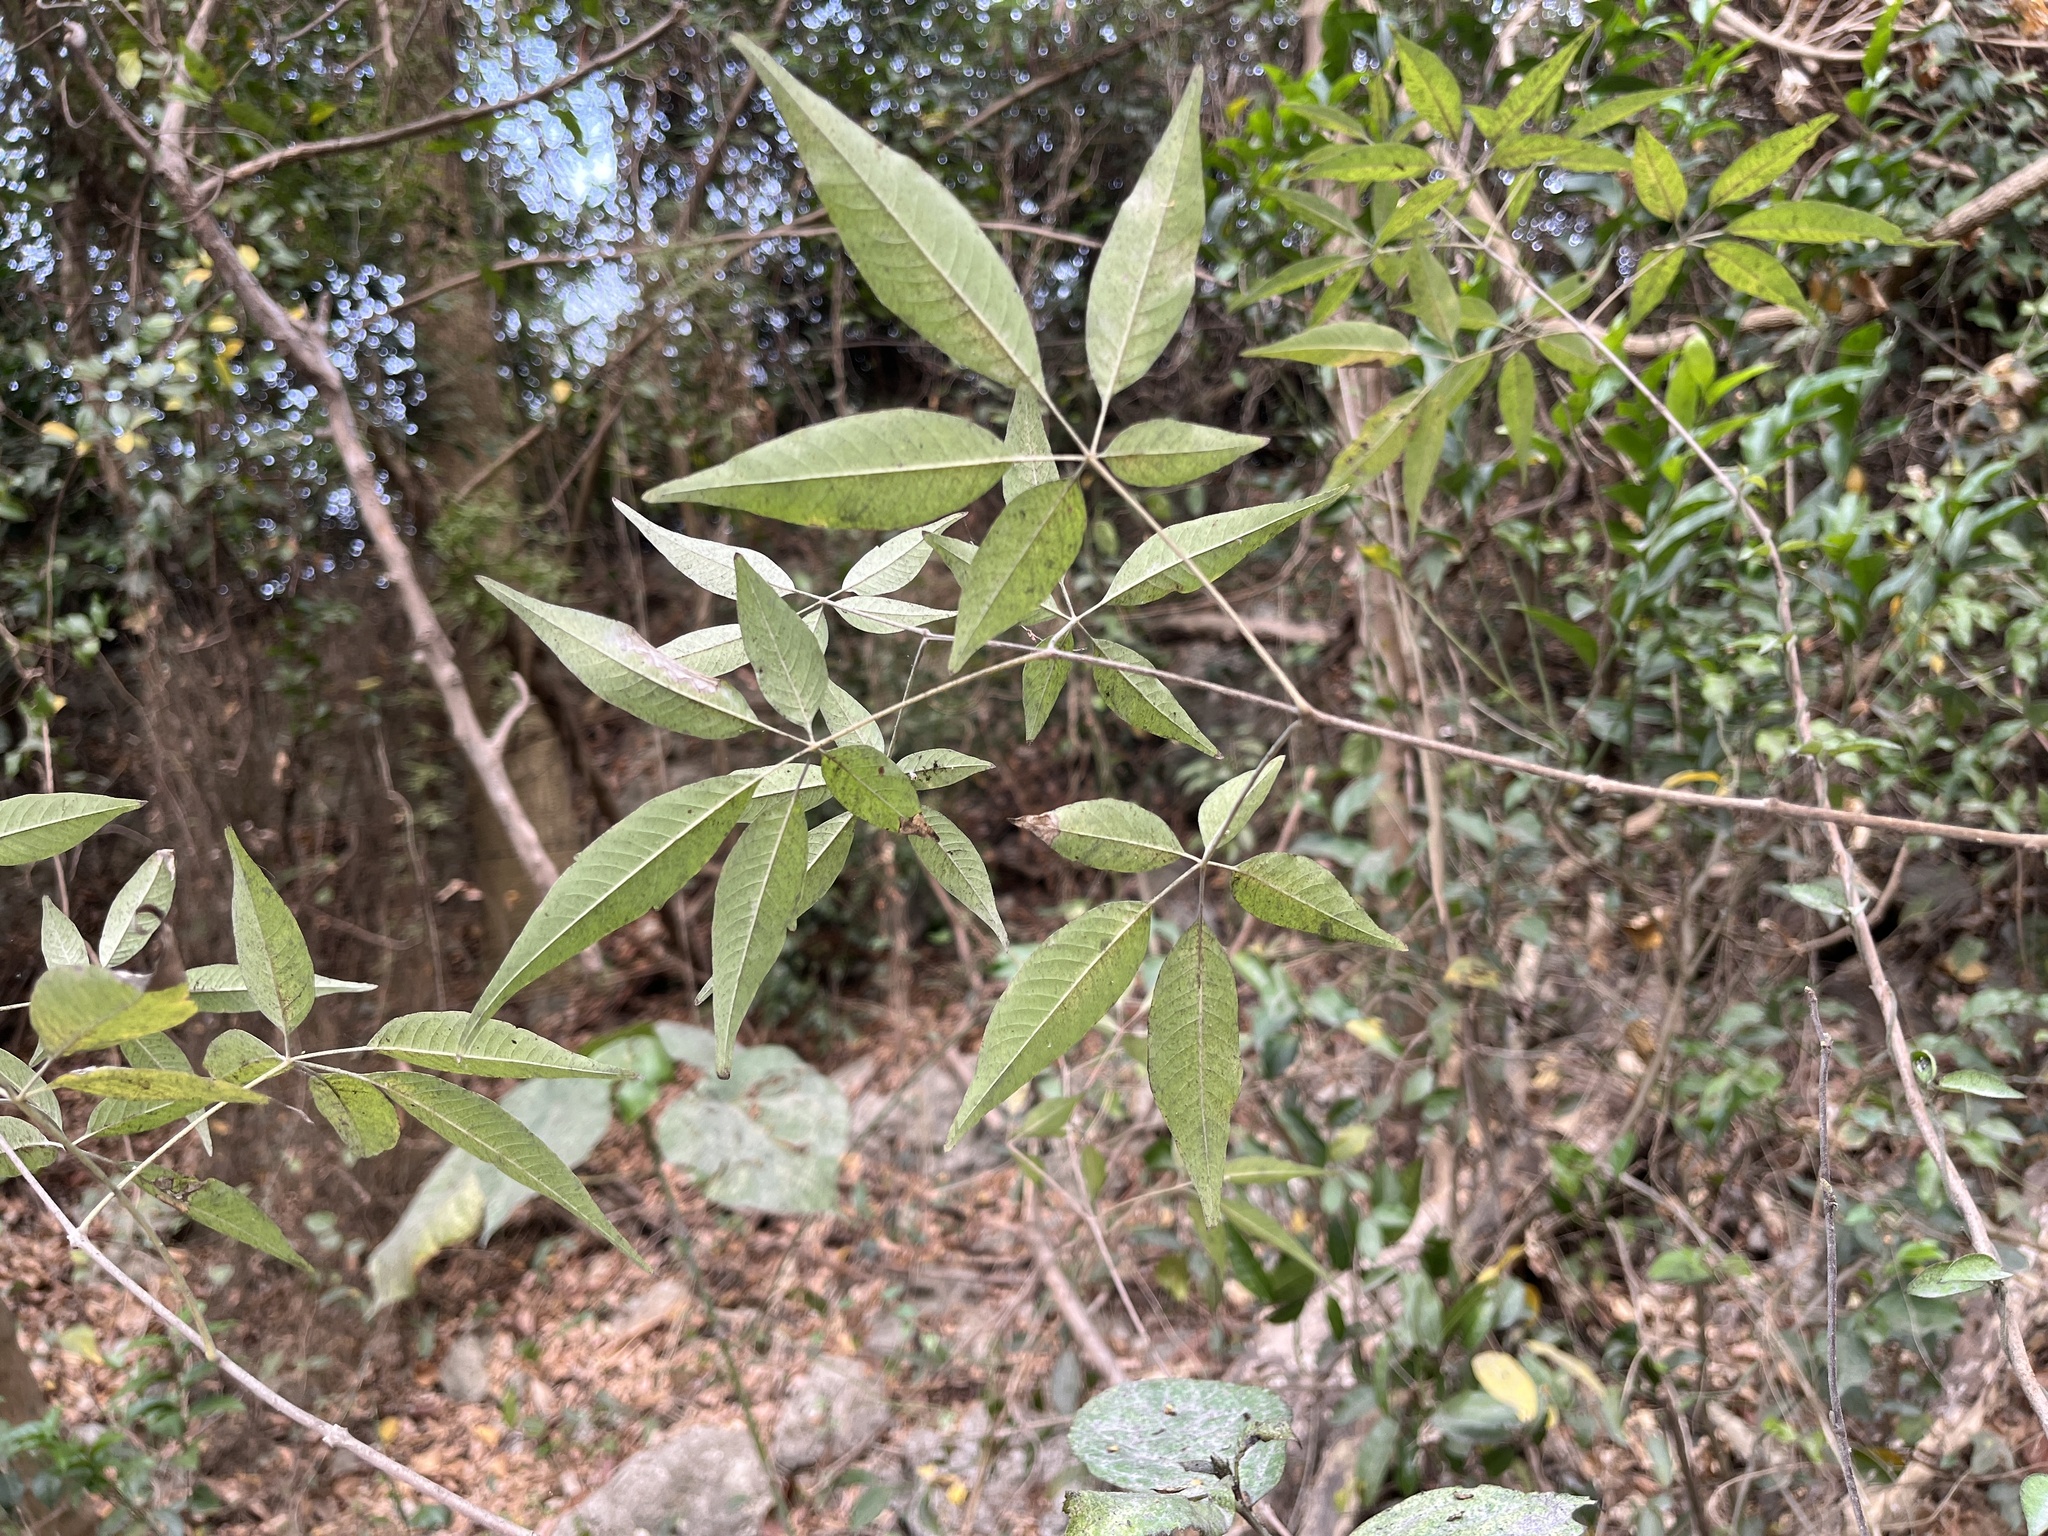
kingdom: Plantae
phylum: Tracheophyta
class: Magnoliopsida
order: Lamiales
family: Lamiaceae
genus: Vitex
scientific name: Vitex negundo
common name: Chinese chastetree
